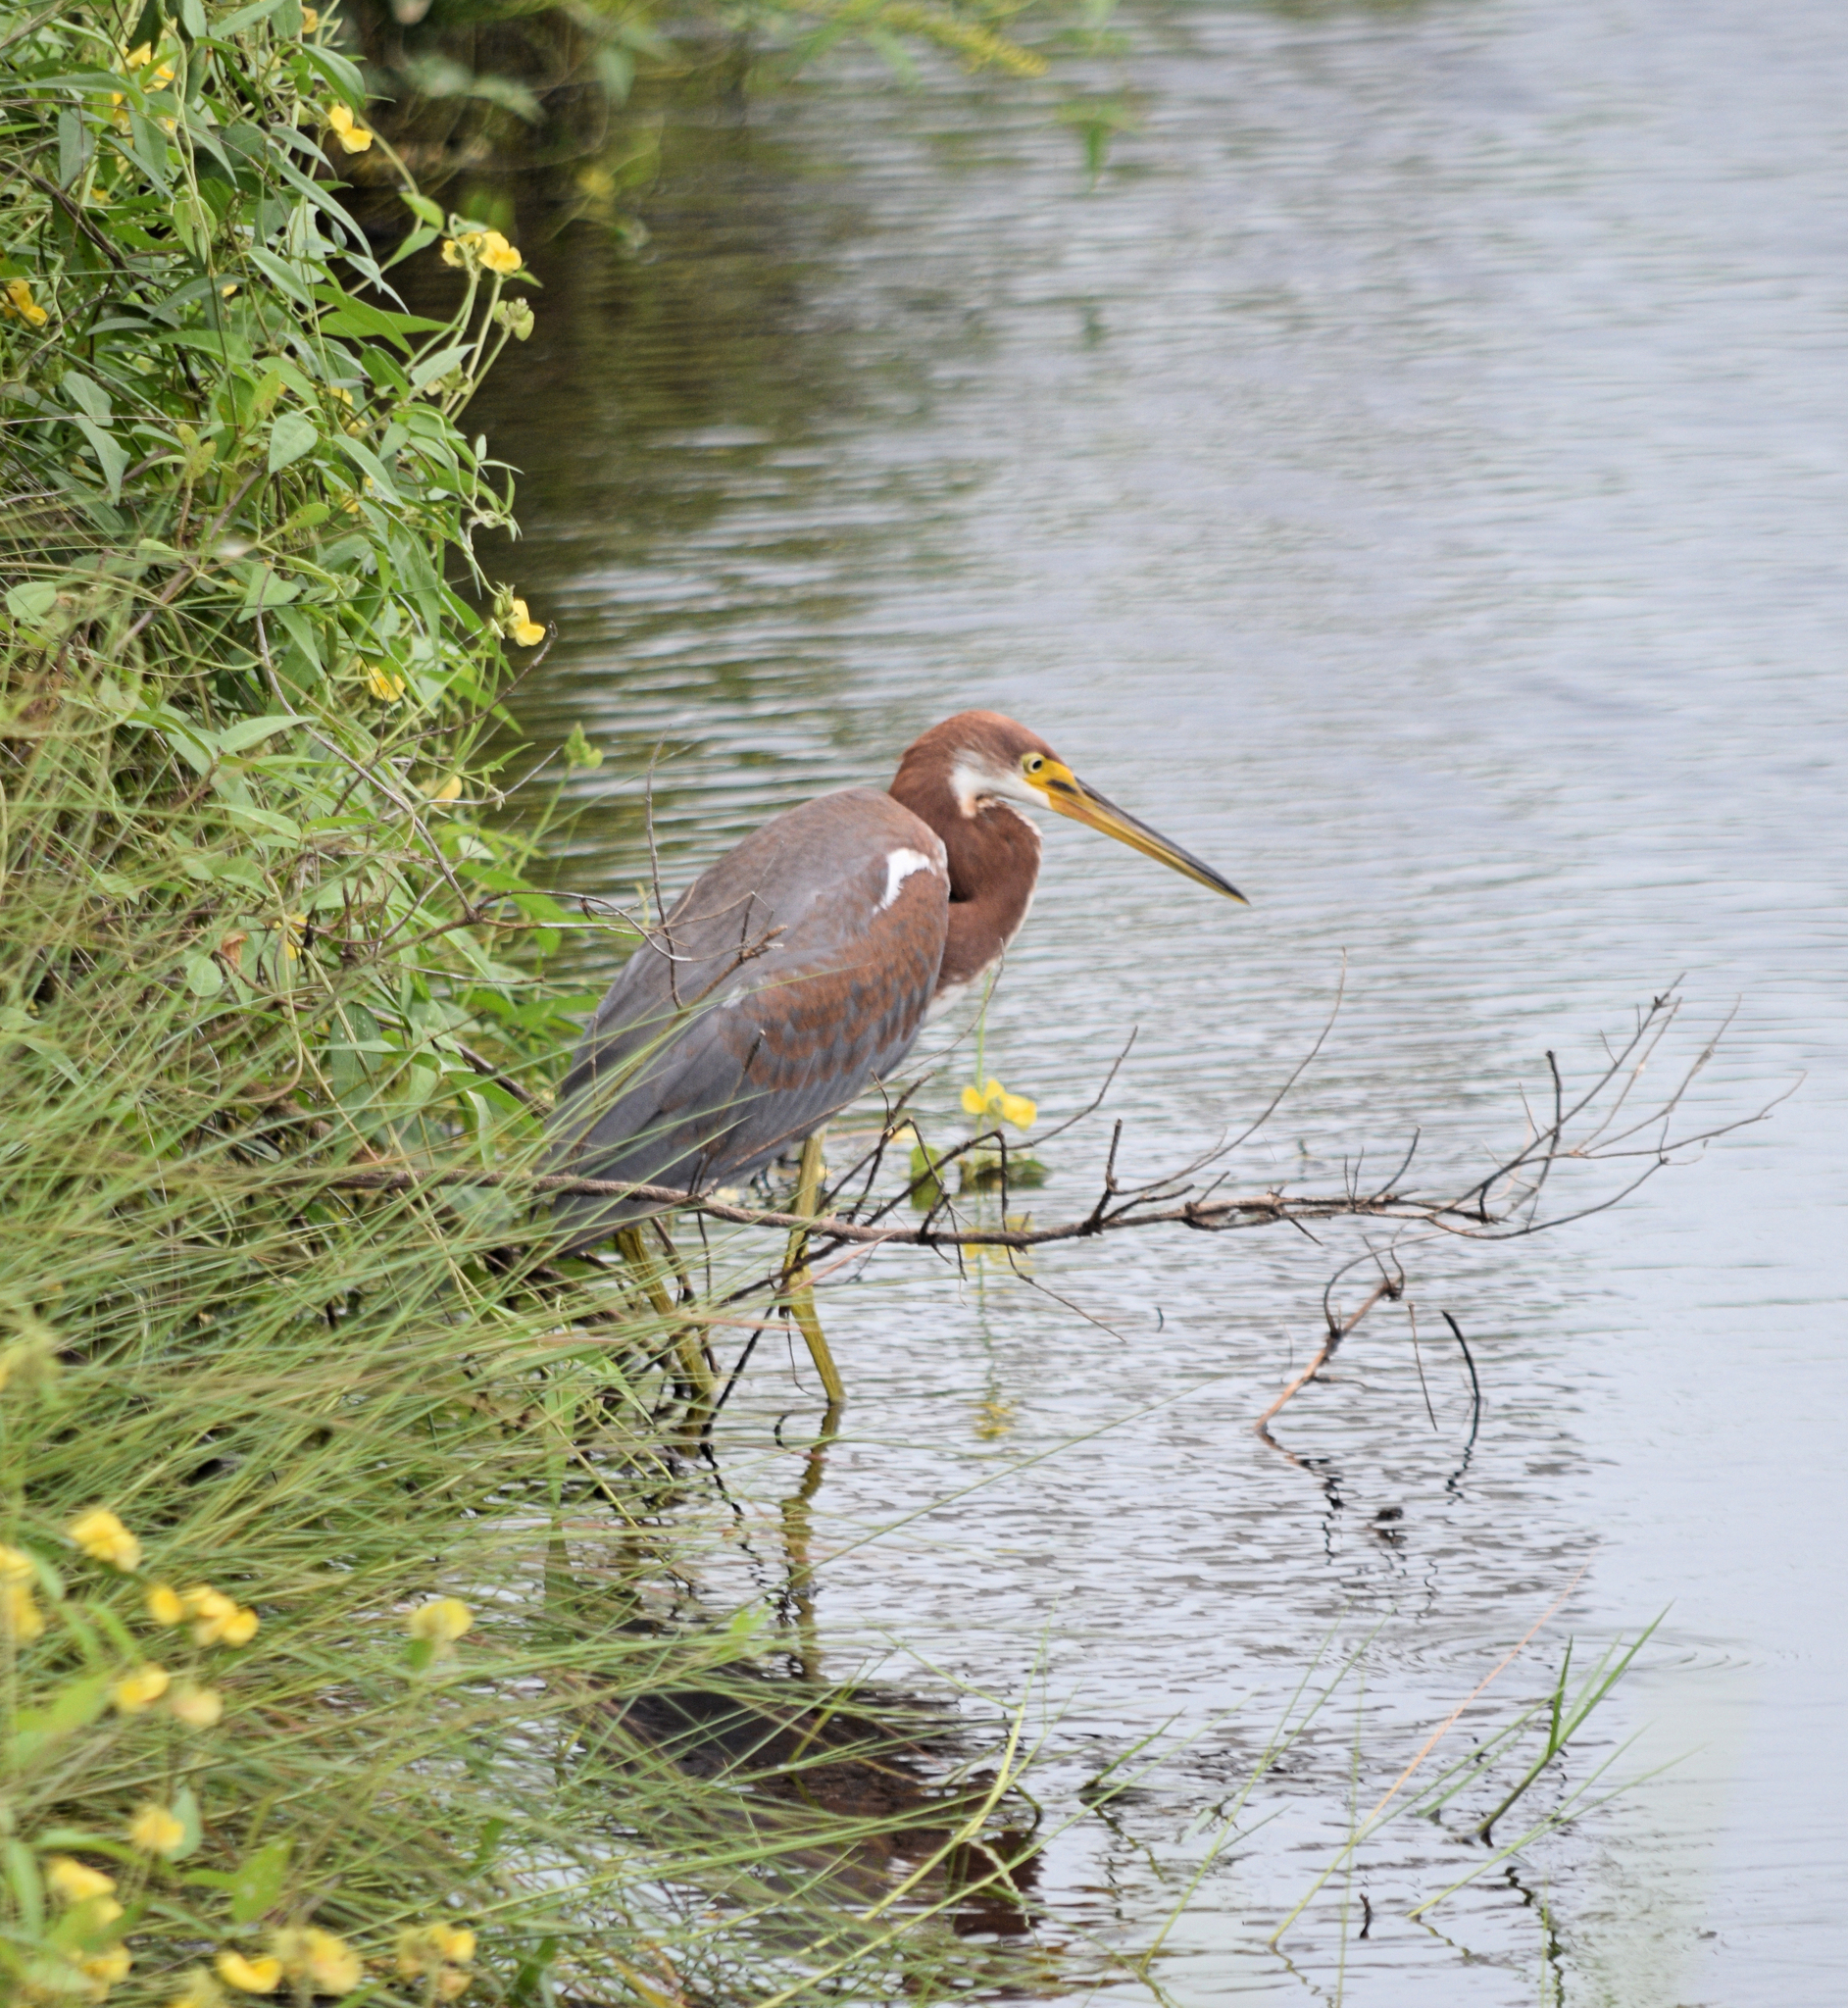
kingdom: Animalia
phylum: Chordata
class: Aves
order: Pelecaniformes
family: Ardeidae
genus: Egretta
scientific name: Egretta tricolor
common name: Tricolored heron
